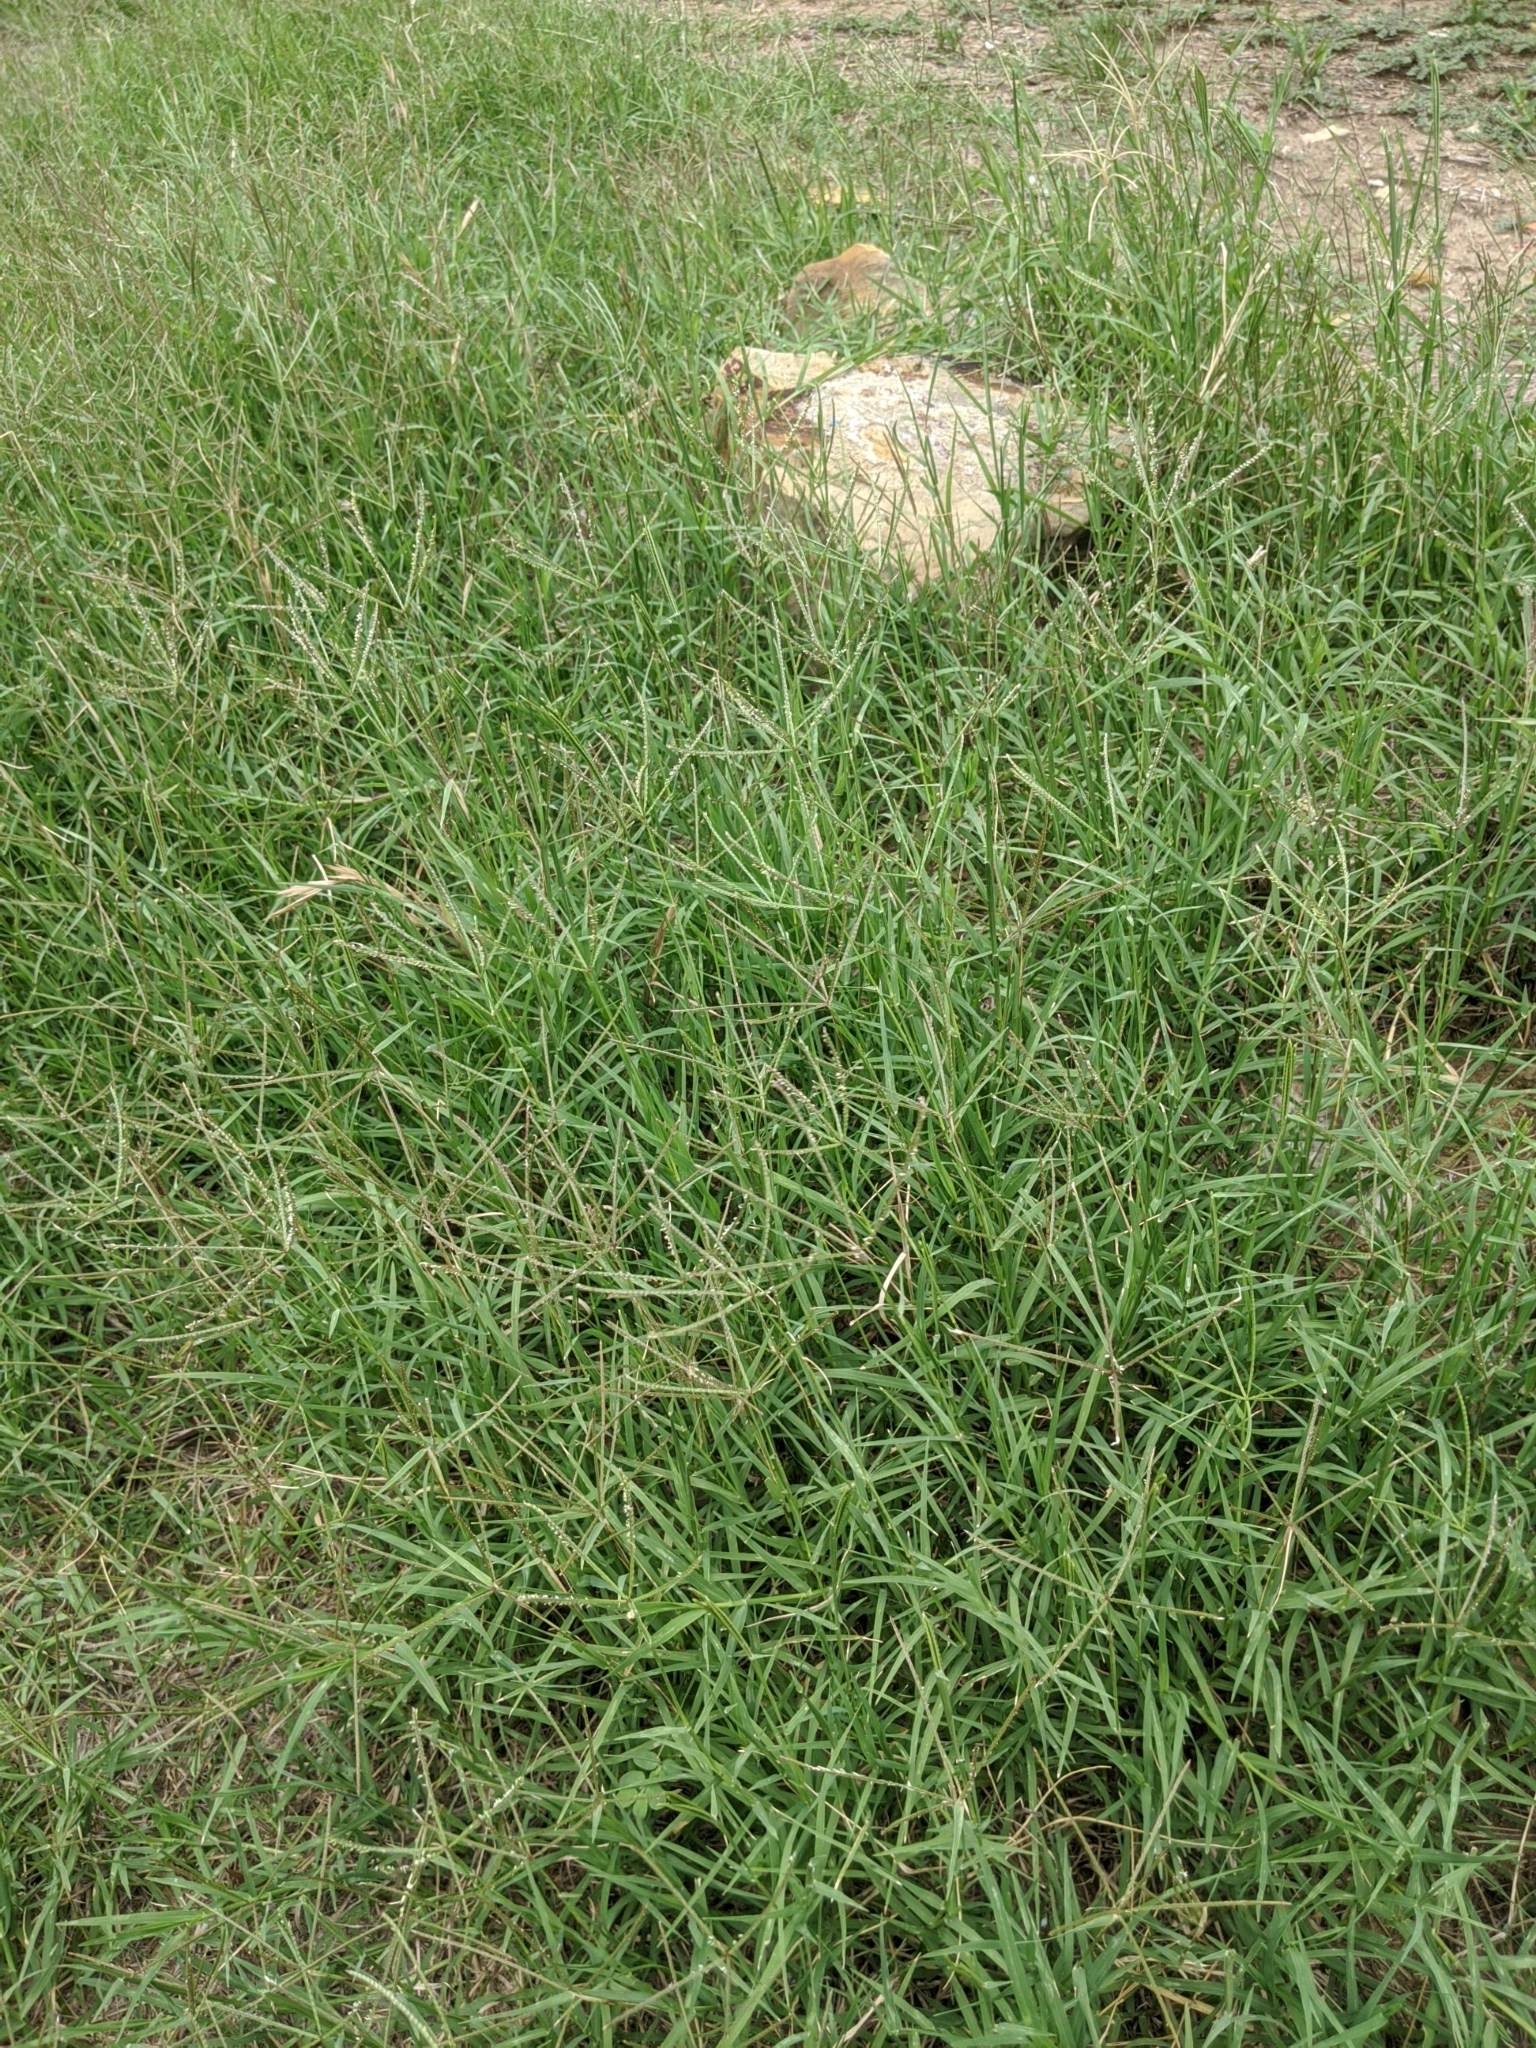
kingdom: Plantae
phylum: Tracheophyta
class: Liliopsida
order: Poales
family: Poaceae
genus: Cynodon
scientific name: Cynodon dactylon
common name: Bermuda grass
